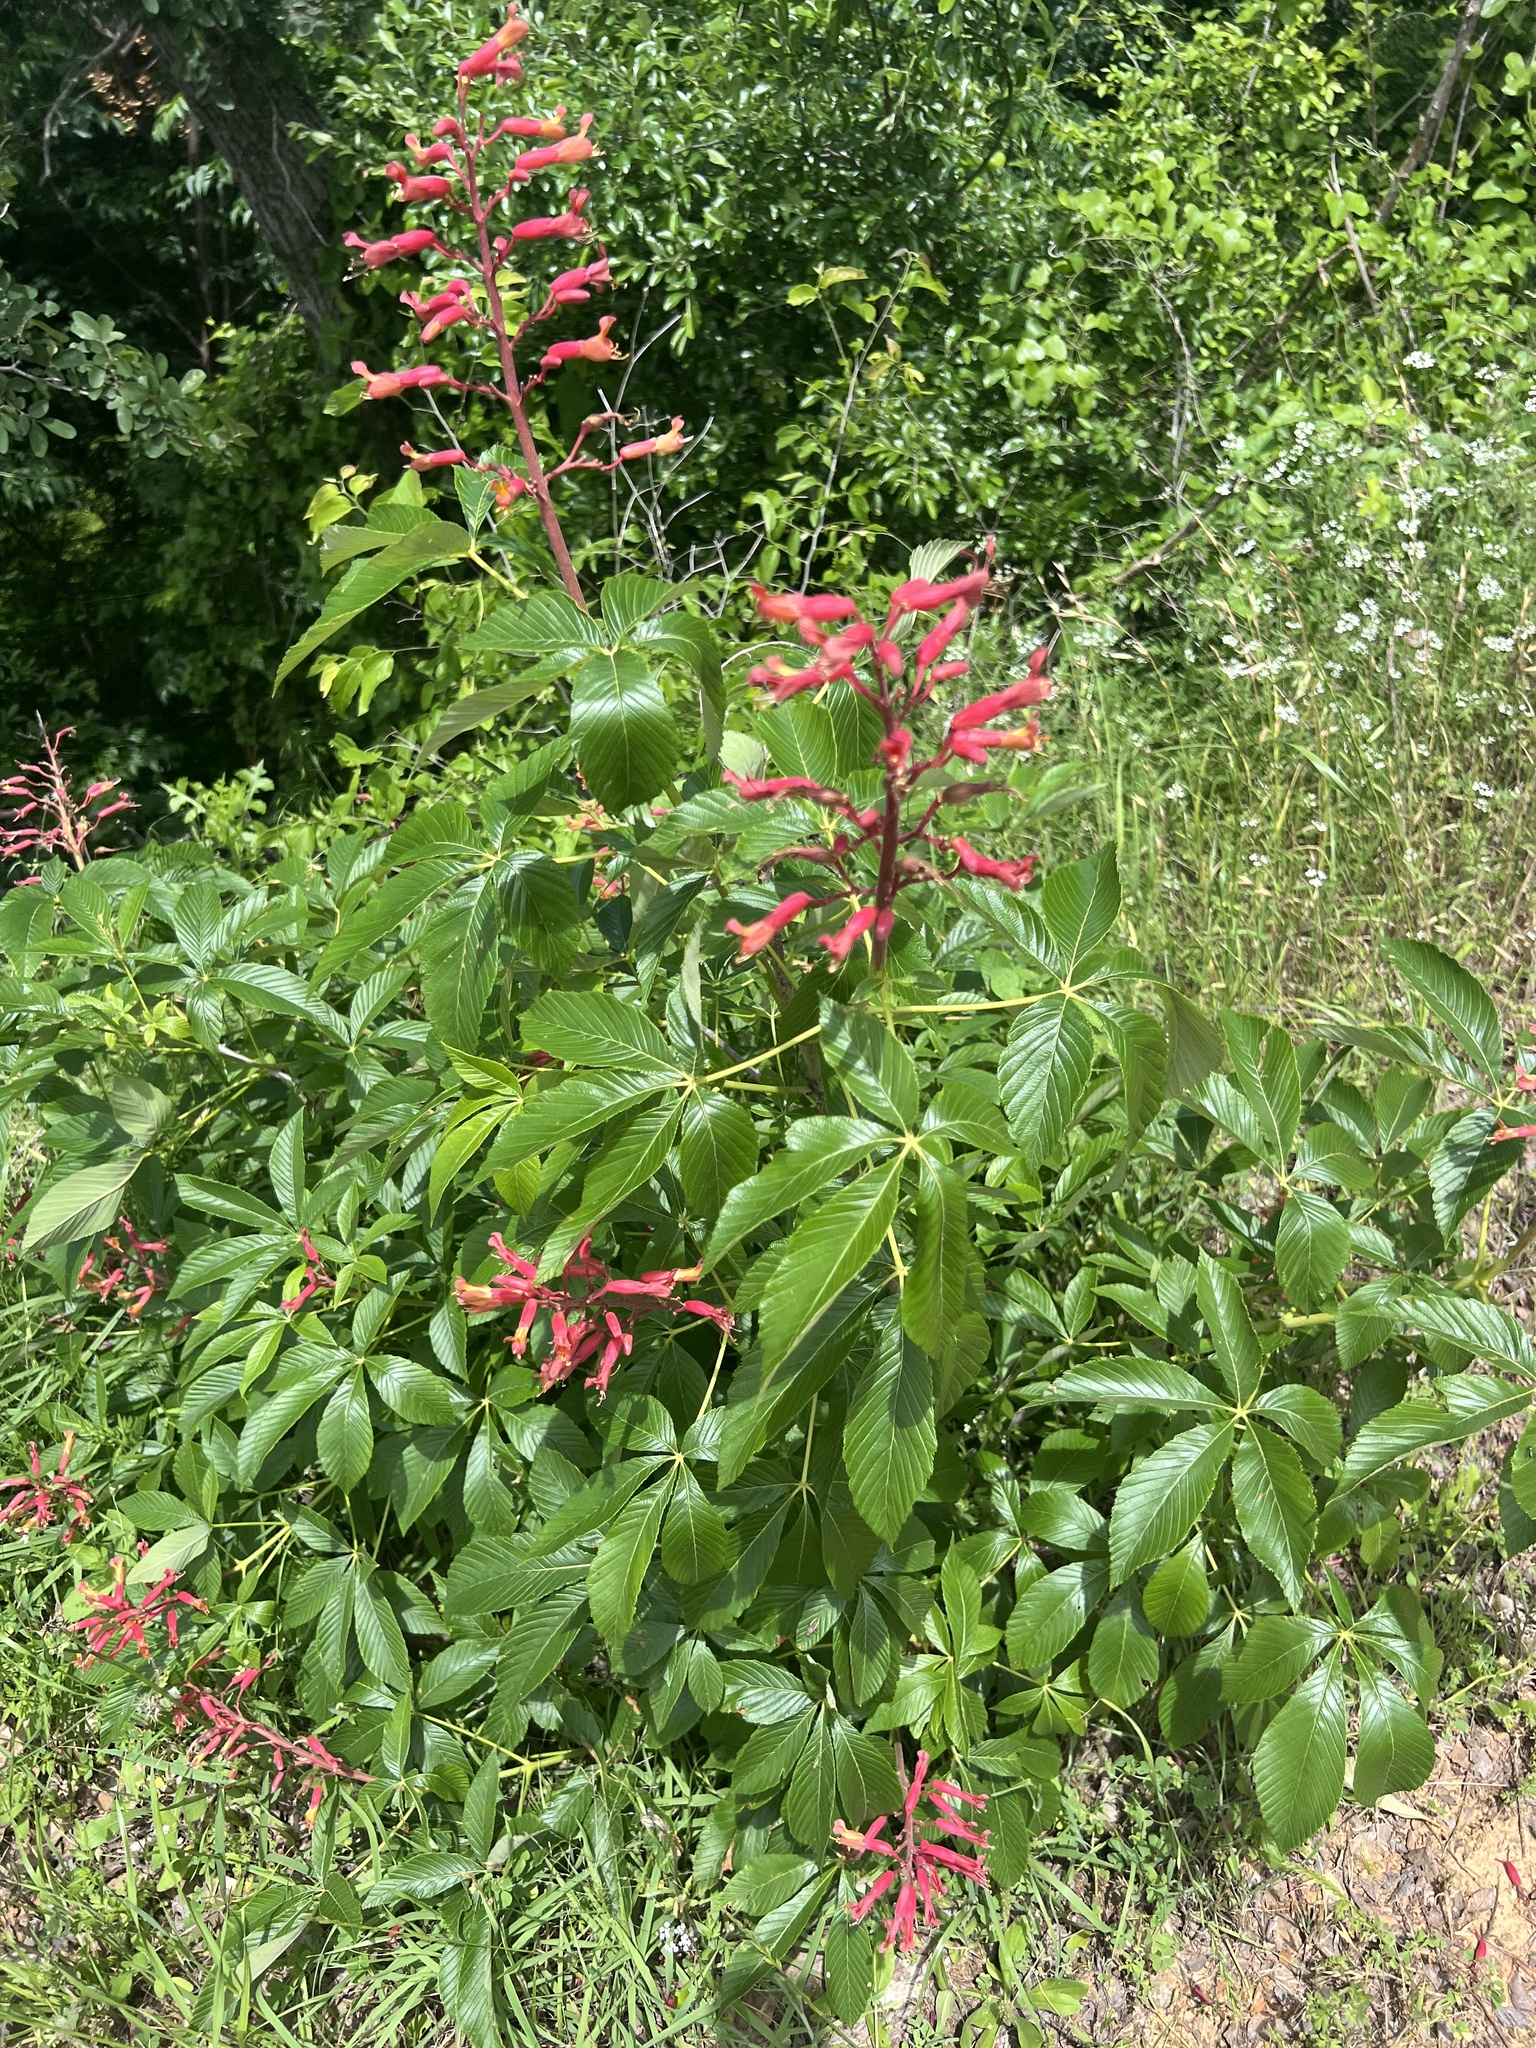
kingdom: Plantae
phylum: Tracheophyta
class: Magnoliopsida
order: Sapindales
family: Sapindaceae
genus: Aesculus
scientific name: Aesculus pavia
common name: Red buckeye
